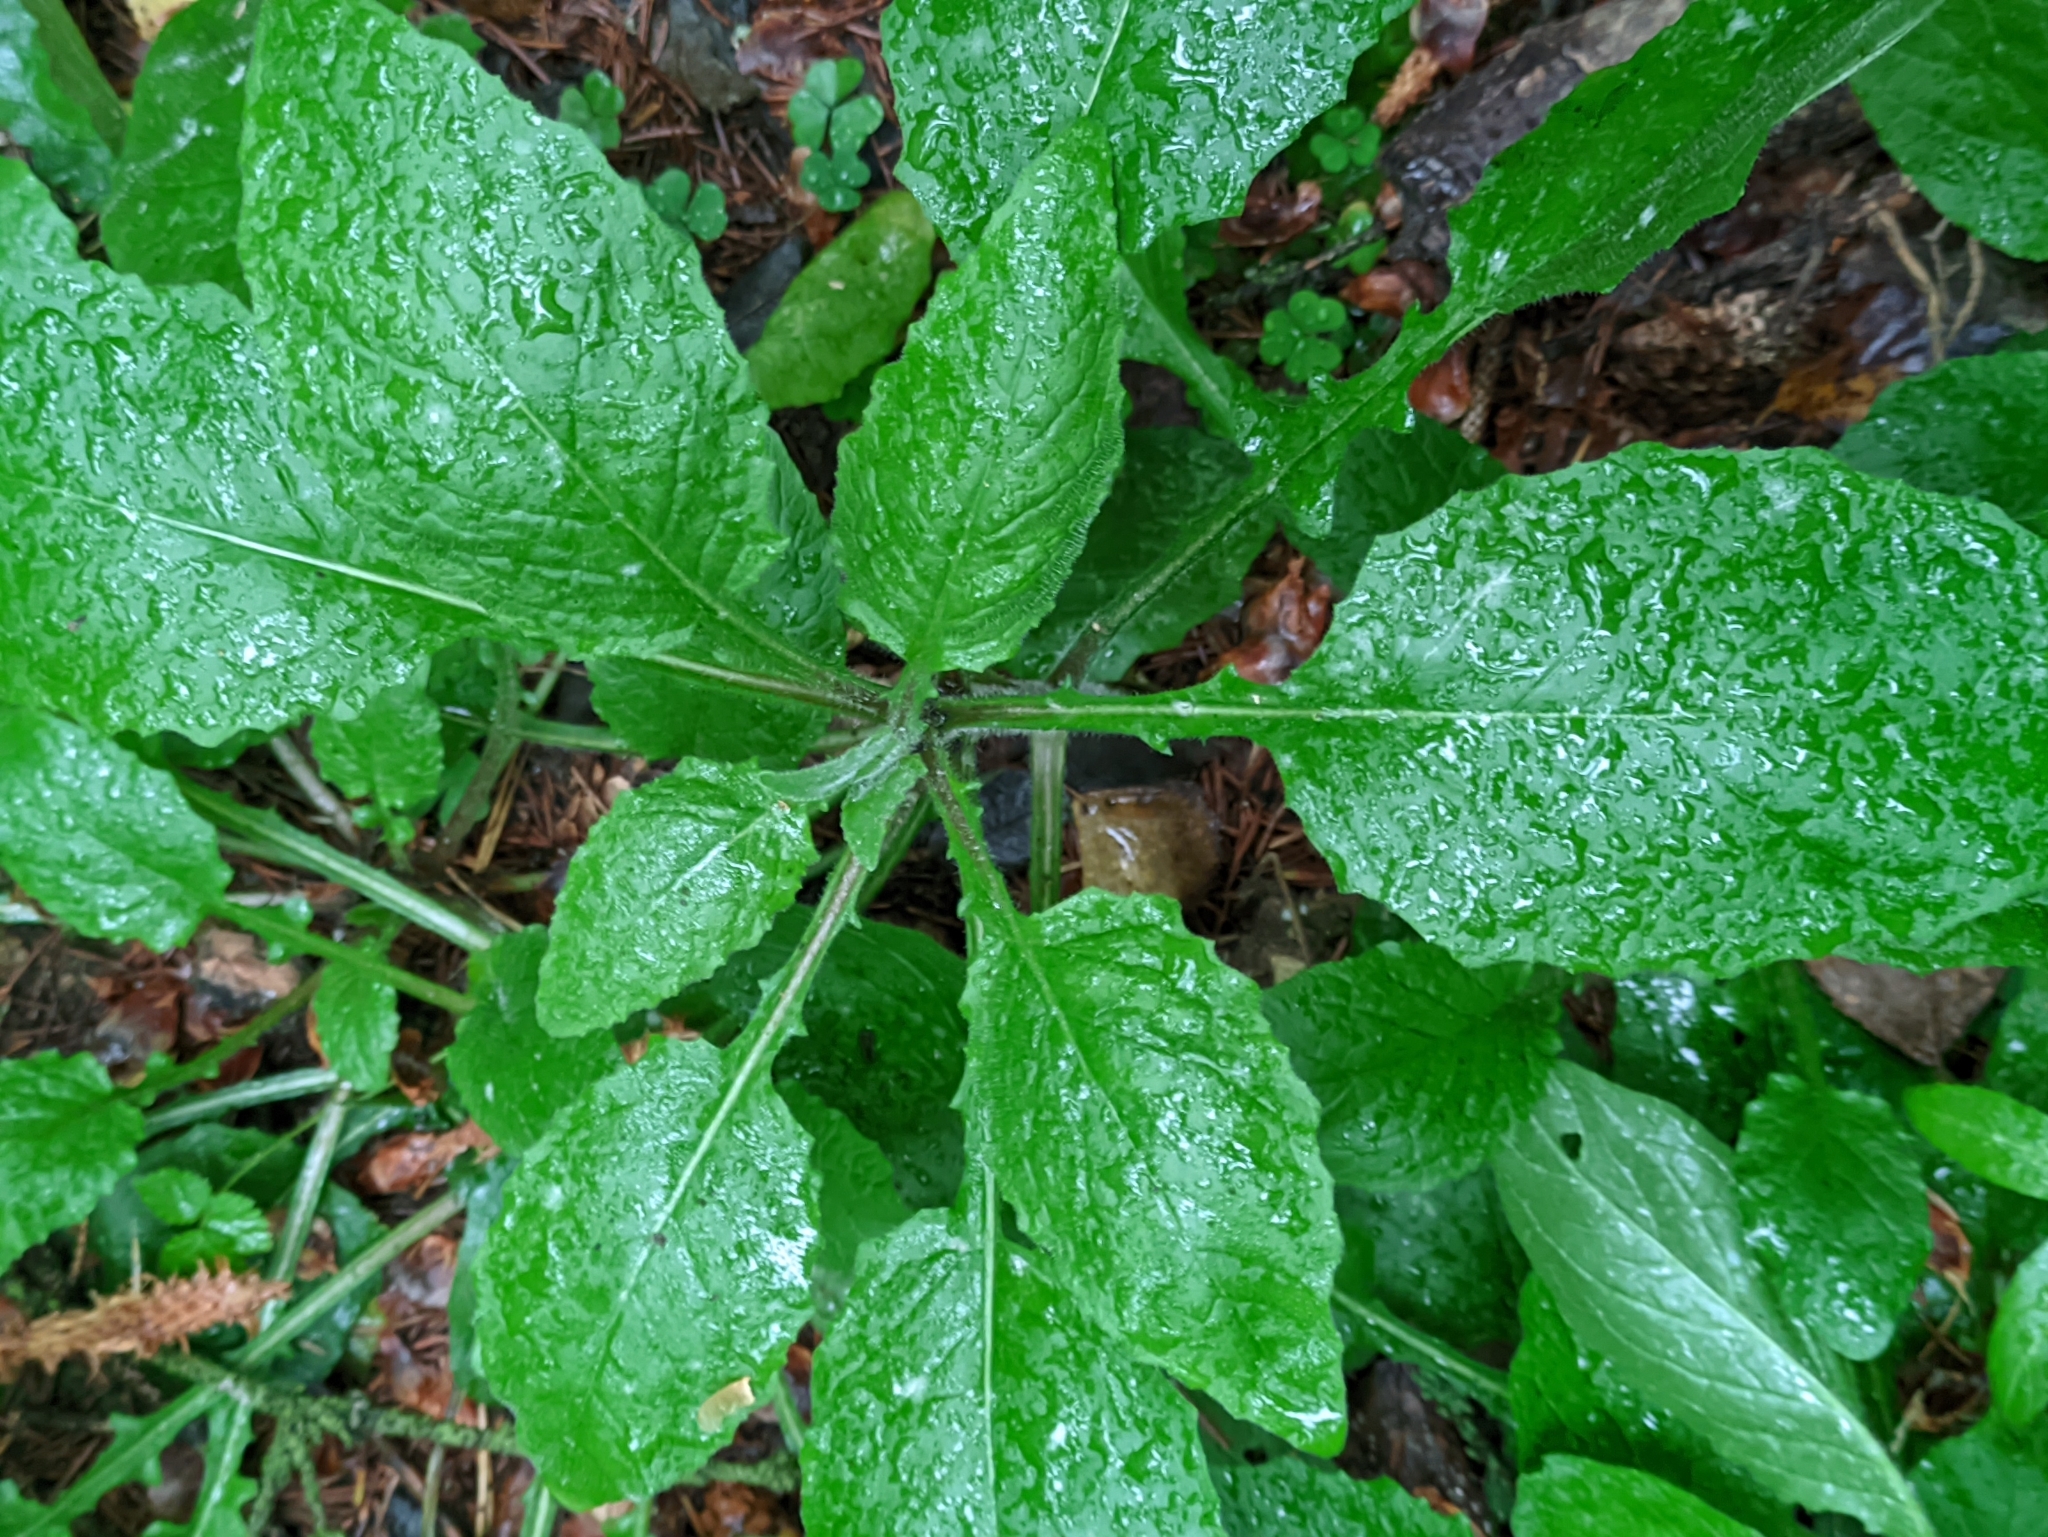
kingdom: Plantae
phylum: Tracheophyta
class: Magnoliopsida
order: Asterales
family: Asteraceae
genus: Lapsana
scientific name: Lapsana communis
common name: Nipplewort
